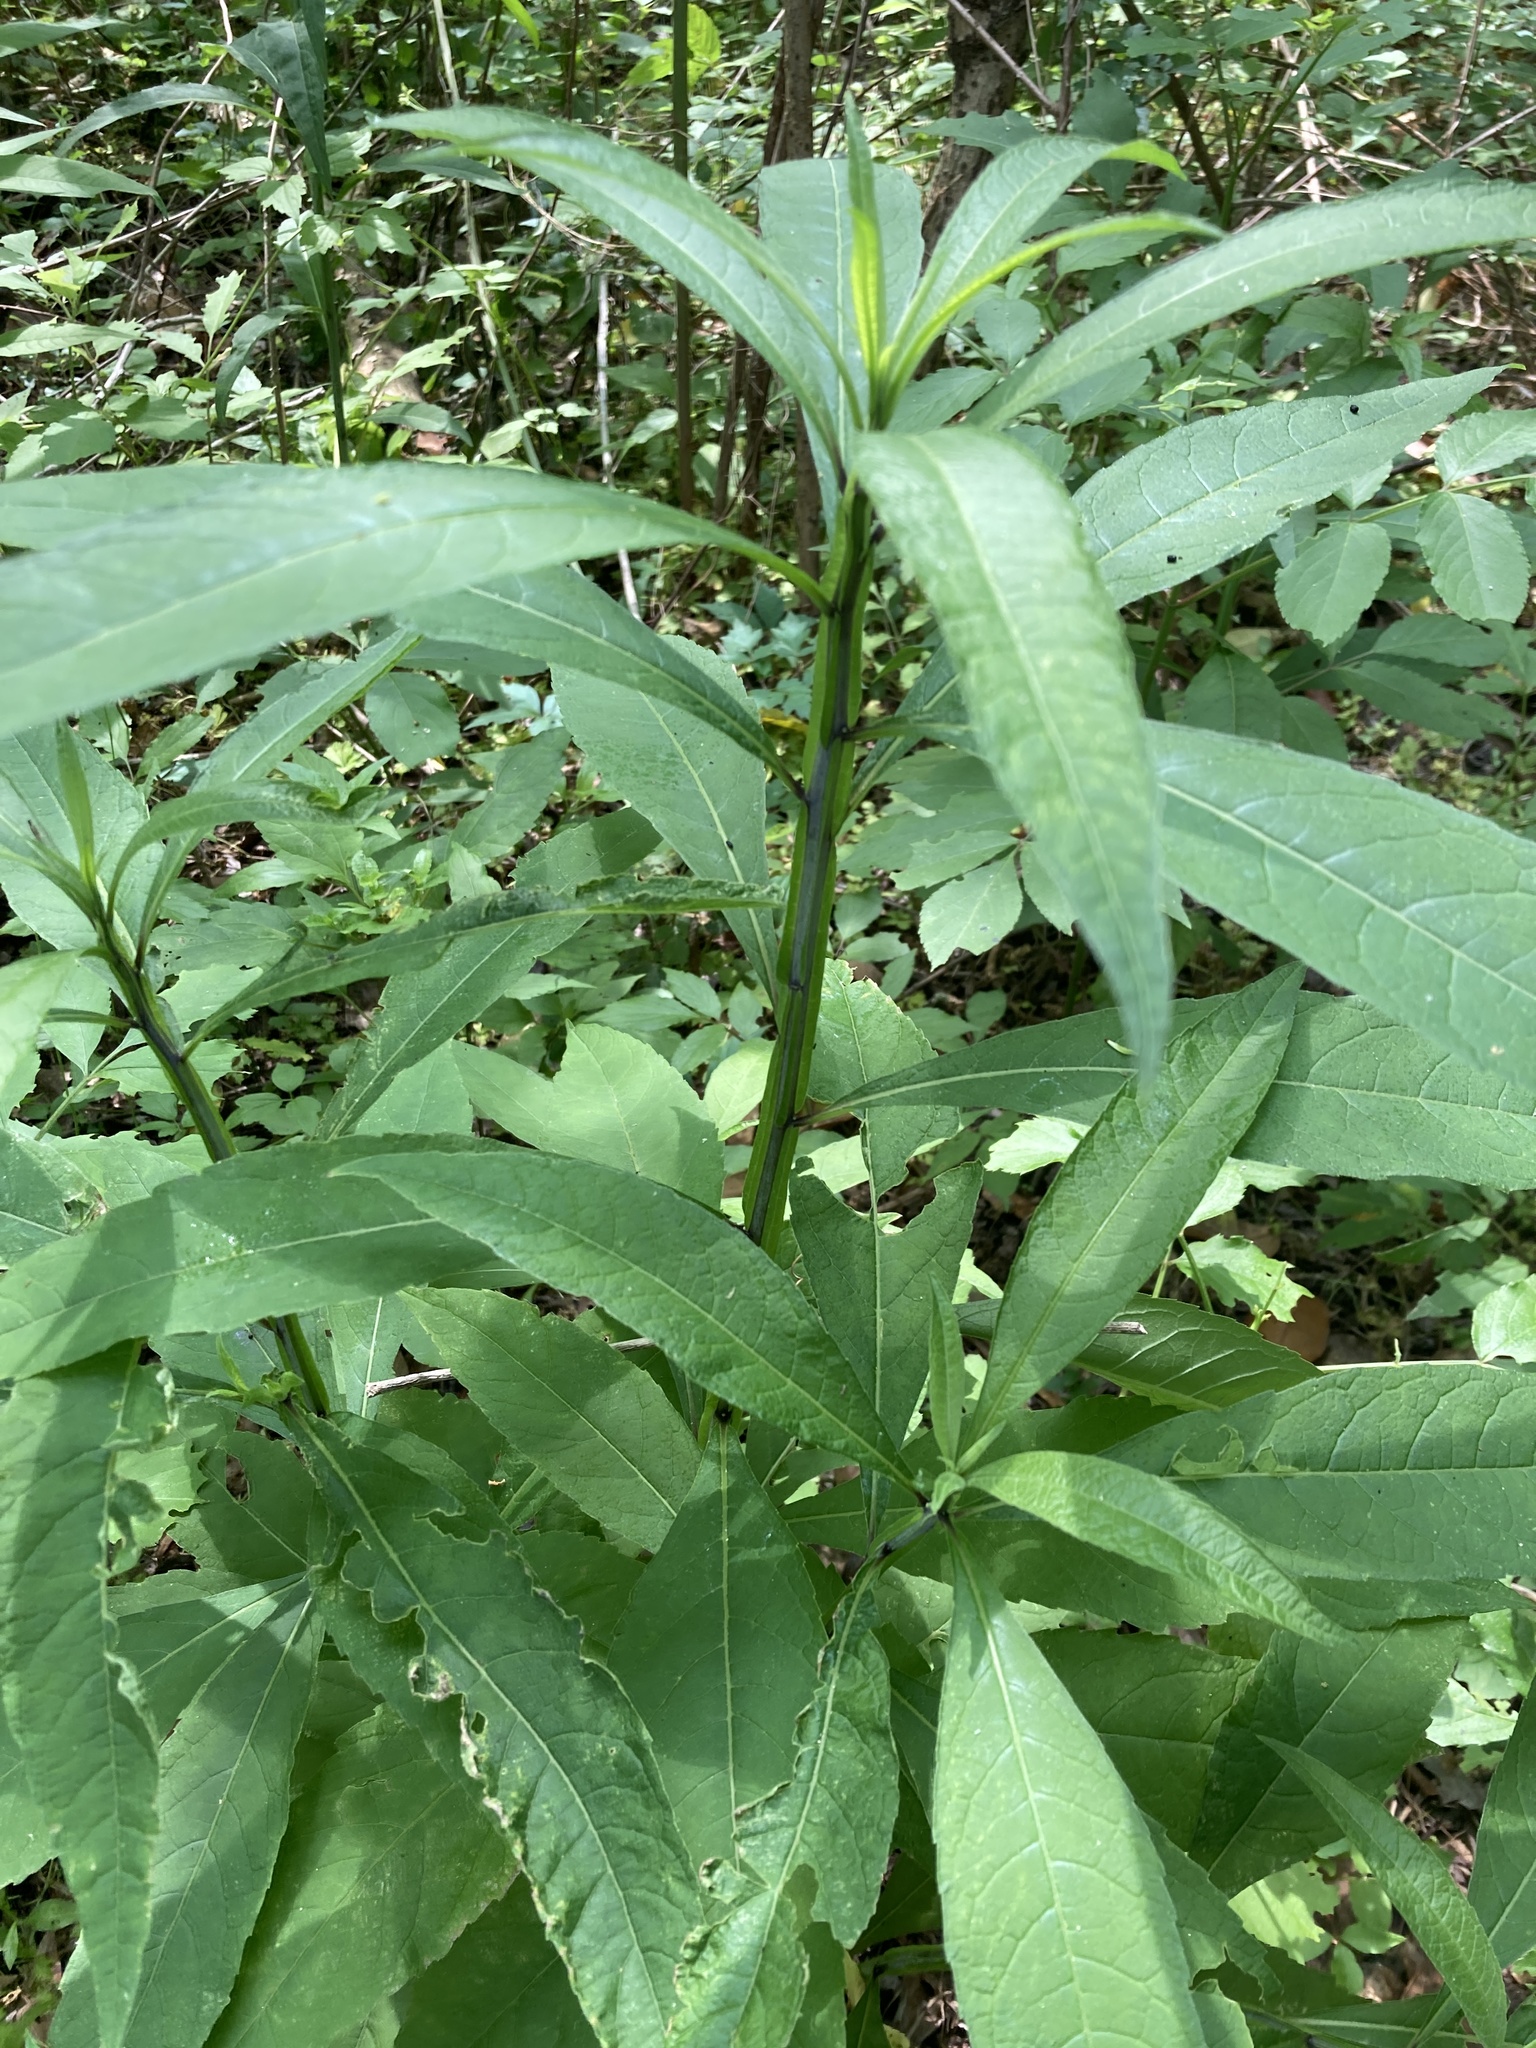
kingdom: Plantae
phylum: Tracheophyta
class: Magnoliopsida
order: Asterales
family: Asteraceae
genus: Verbesina
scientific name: Verbesina alternifolia
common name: Wingstem
